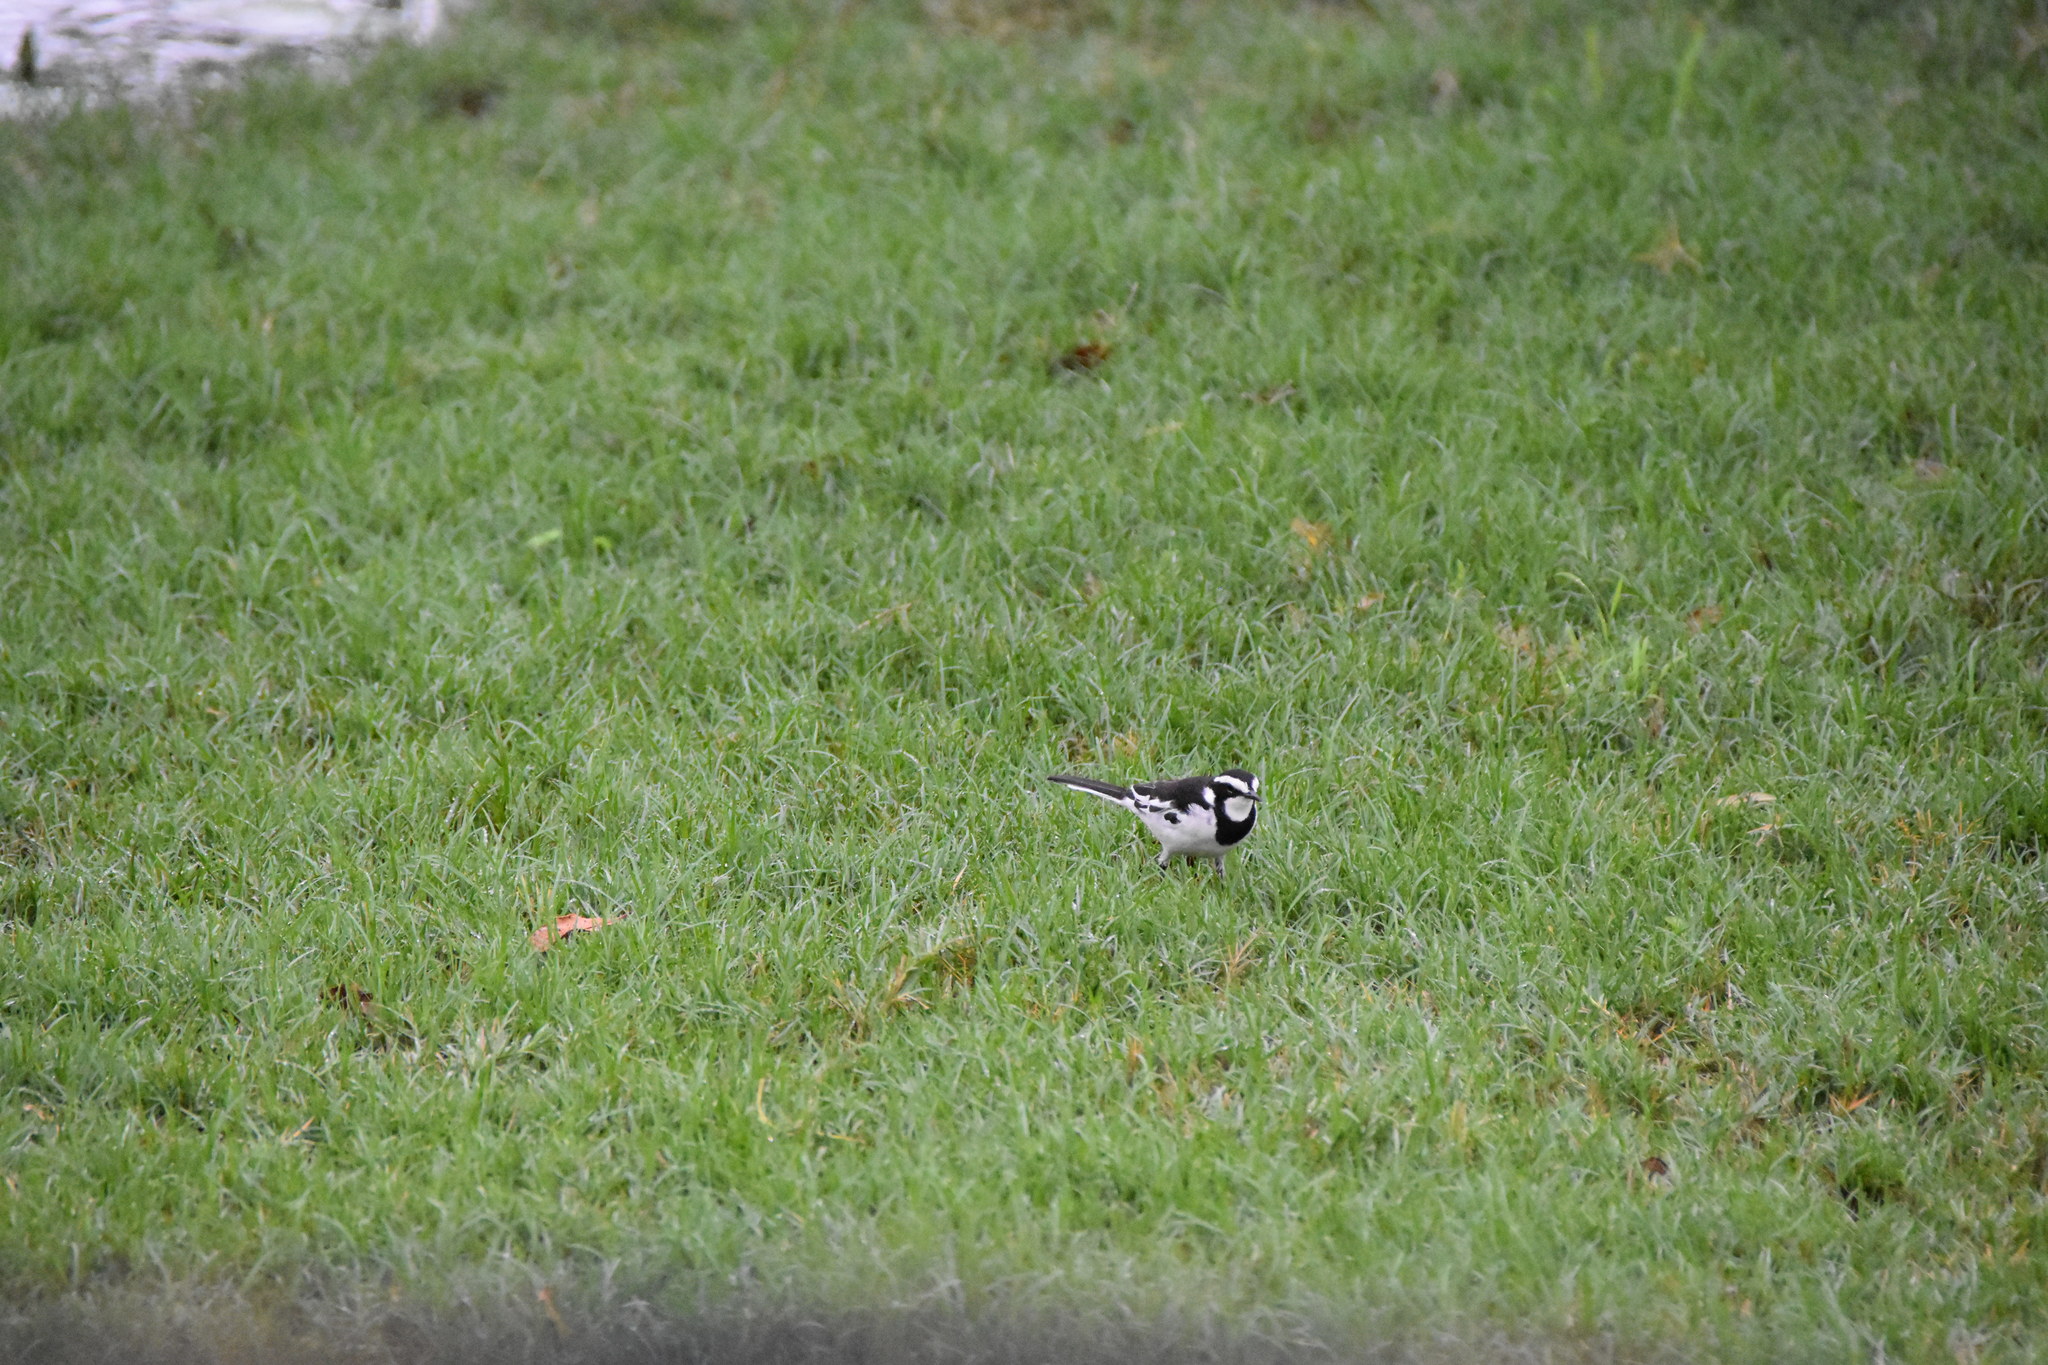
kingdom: Animalia
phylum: Chordata
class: Aves
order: Passeriformes
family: Motacillidae
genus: Motacilla
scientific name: Motacilla aguimp
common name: African pied wagtail
